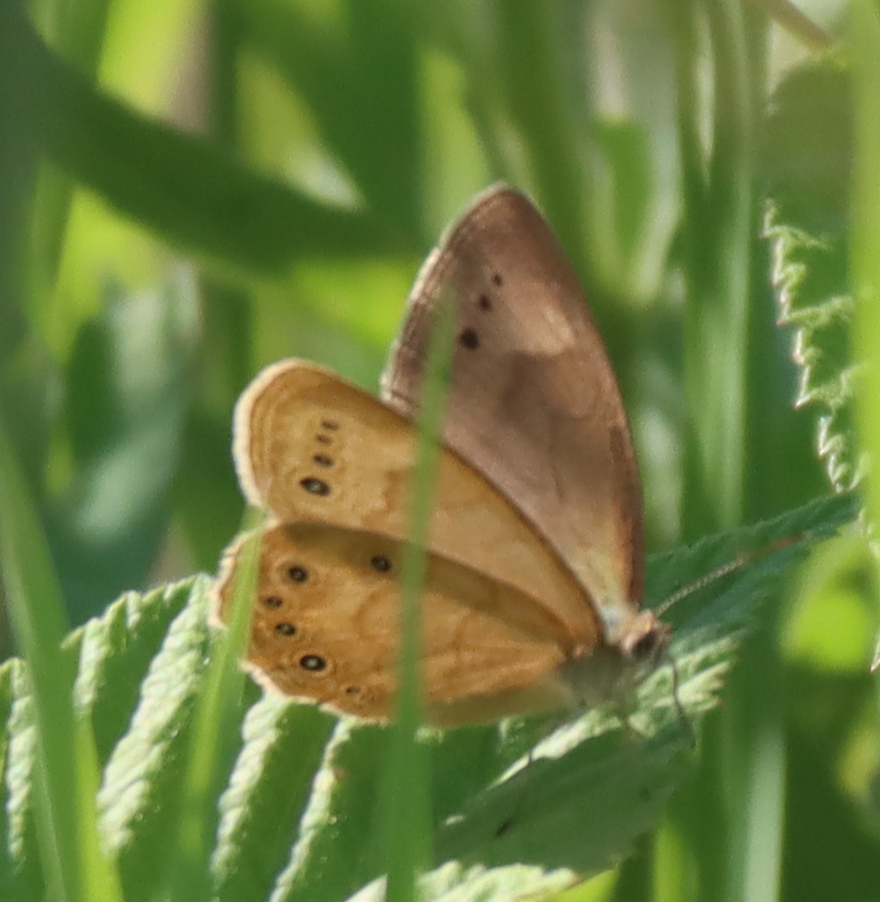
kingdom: Animalia
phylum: Arthropoda
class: Insecta
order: Lepidoptera
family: Nymphalidae
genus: Lethe
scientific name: Lethe eurydice
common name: Eyed brown
